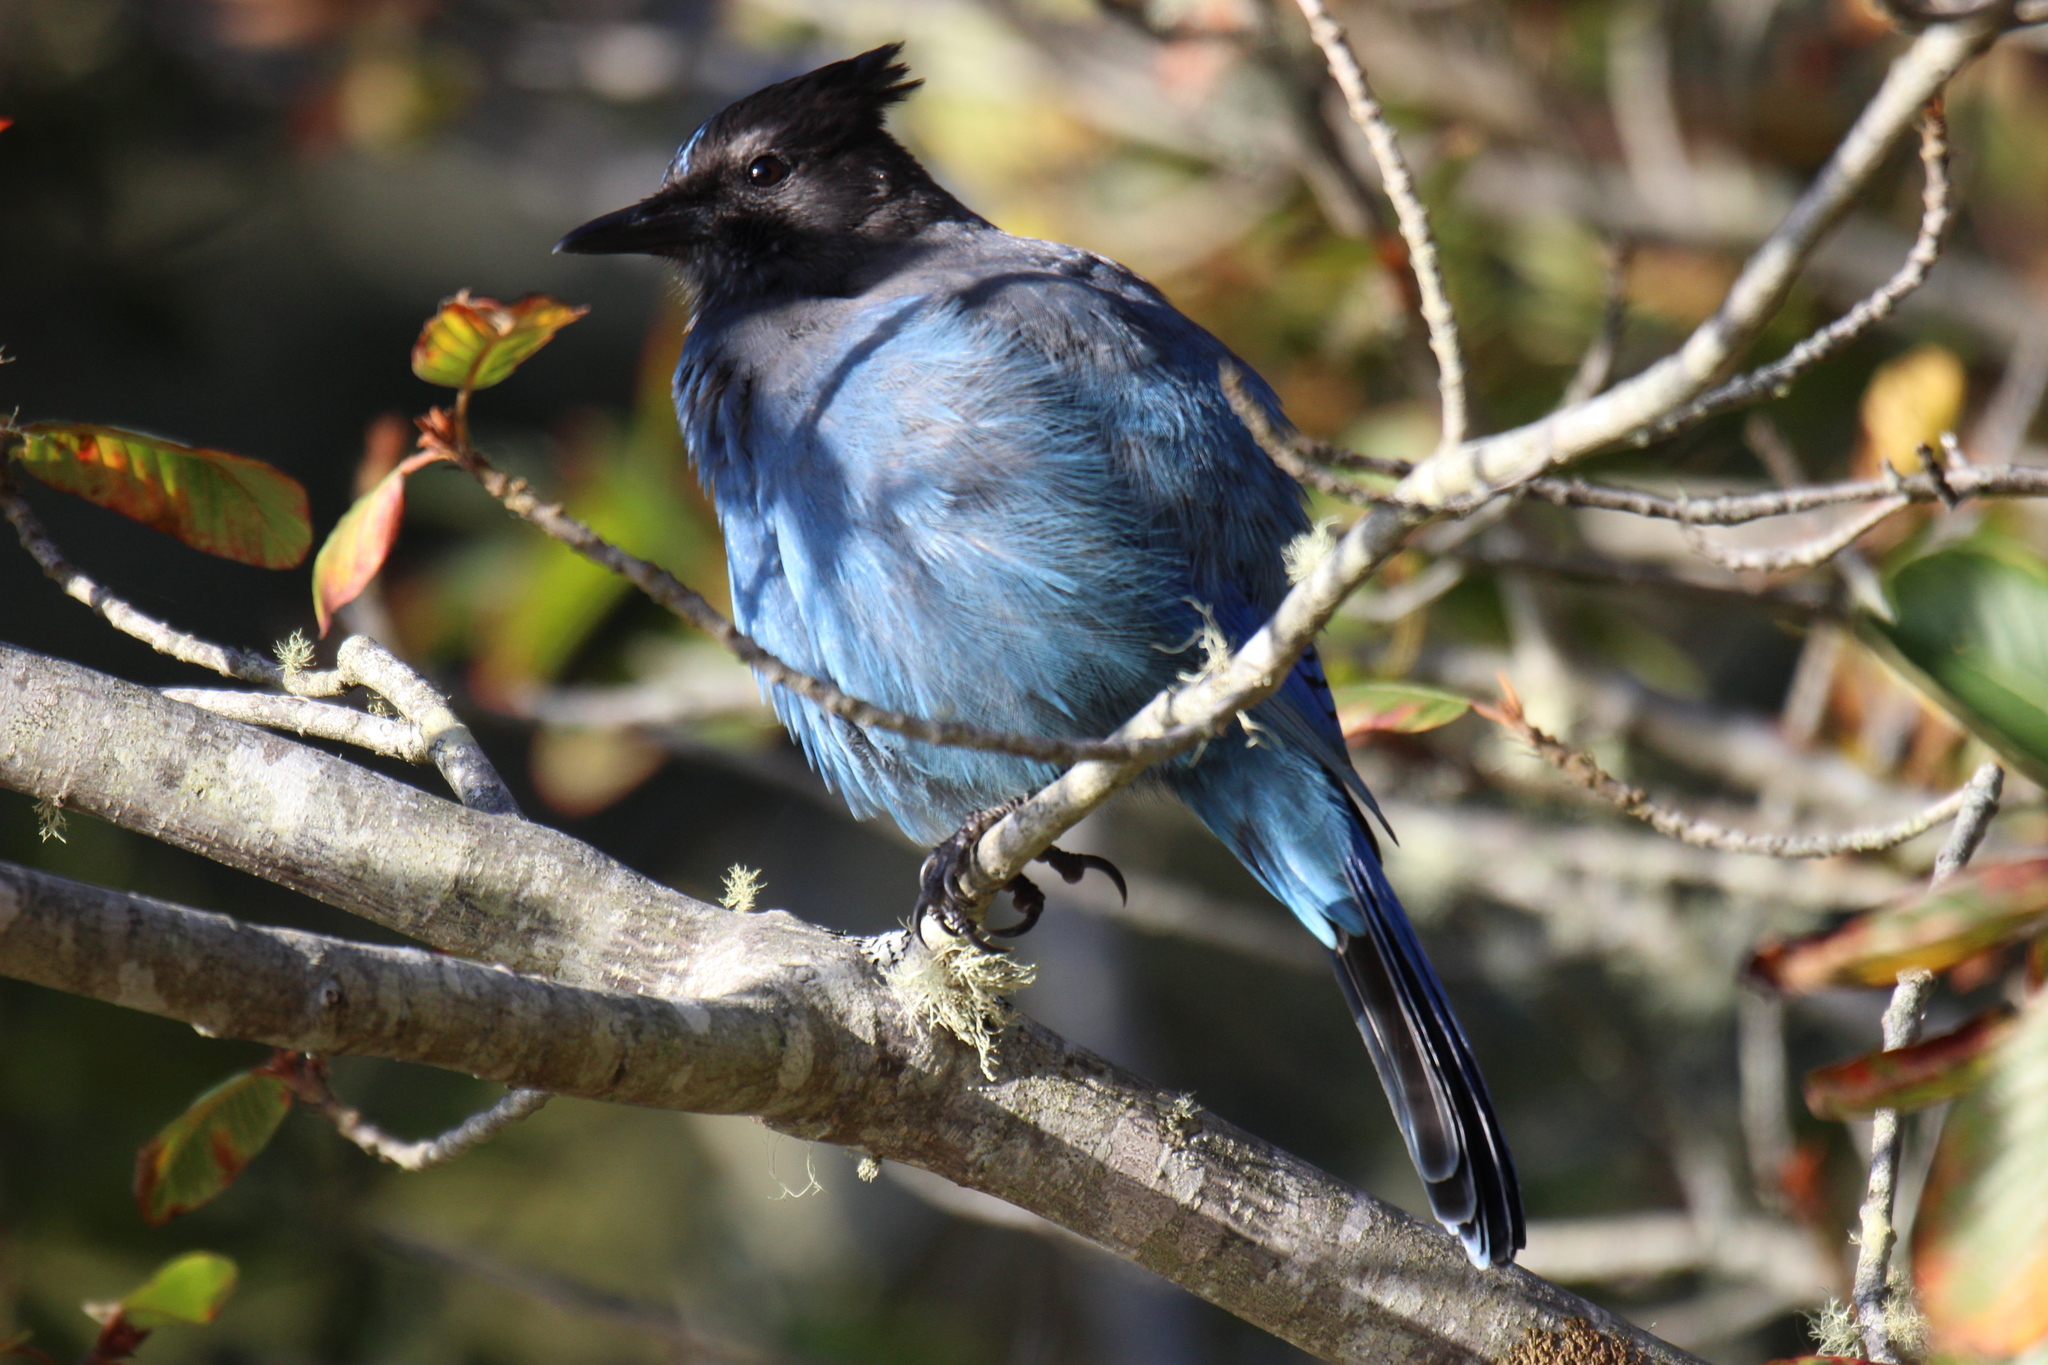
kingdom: Animalia
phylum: Chordata
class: Aves
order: Passeriformes
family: Corvidae
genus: Cyanocitta
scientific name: Cyanocitta stelleri
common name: Steller's jay
